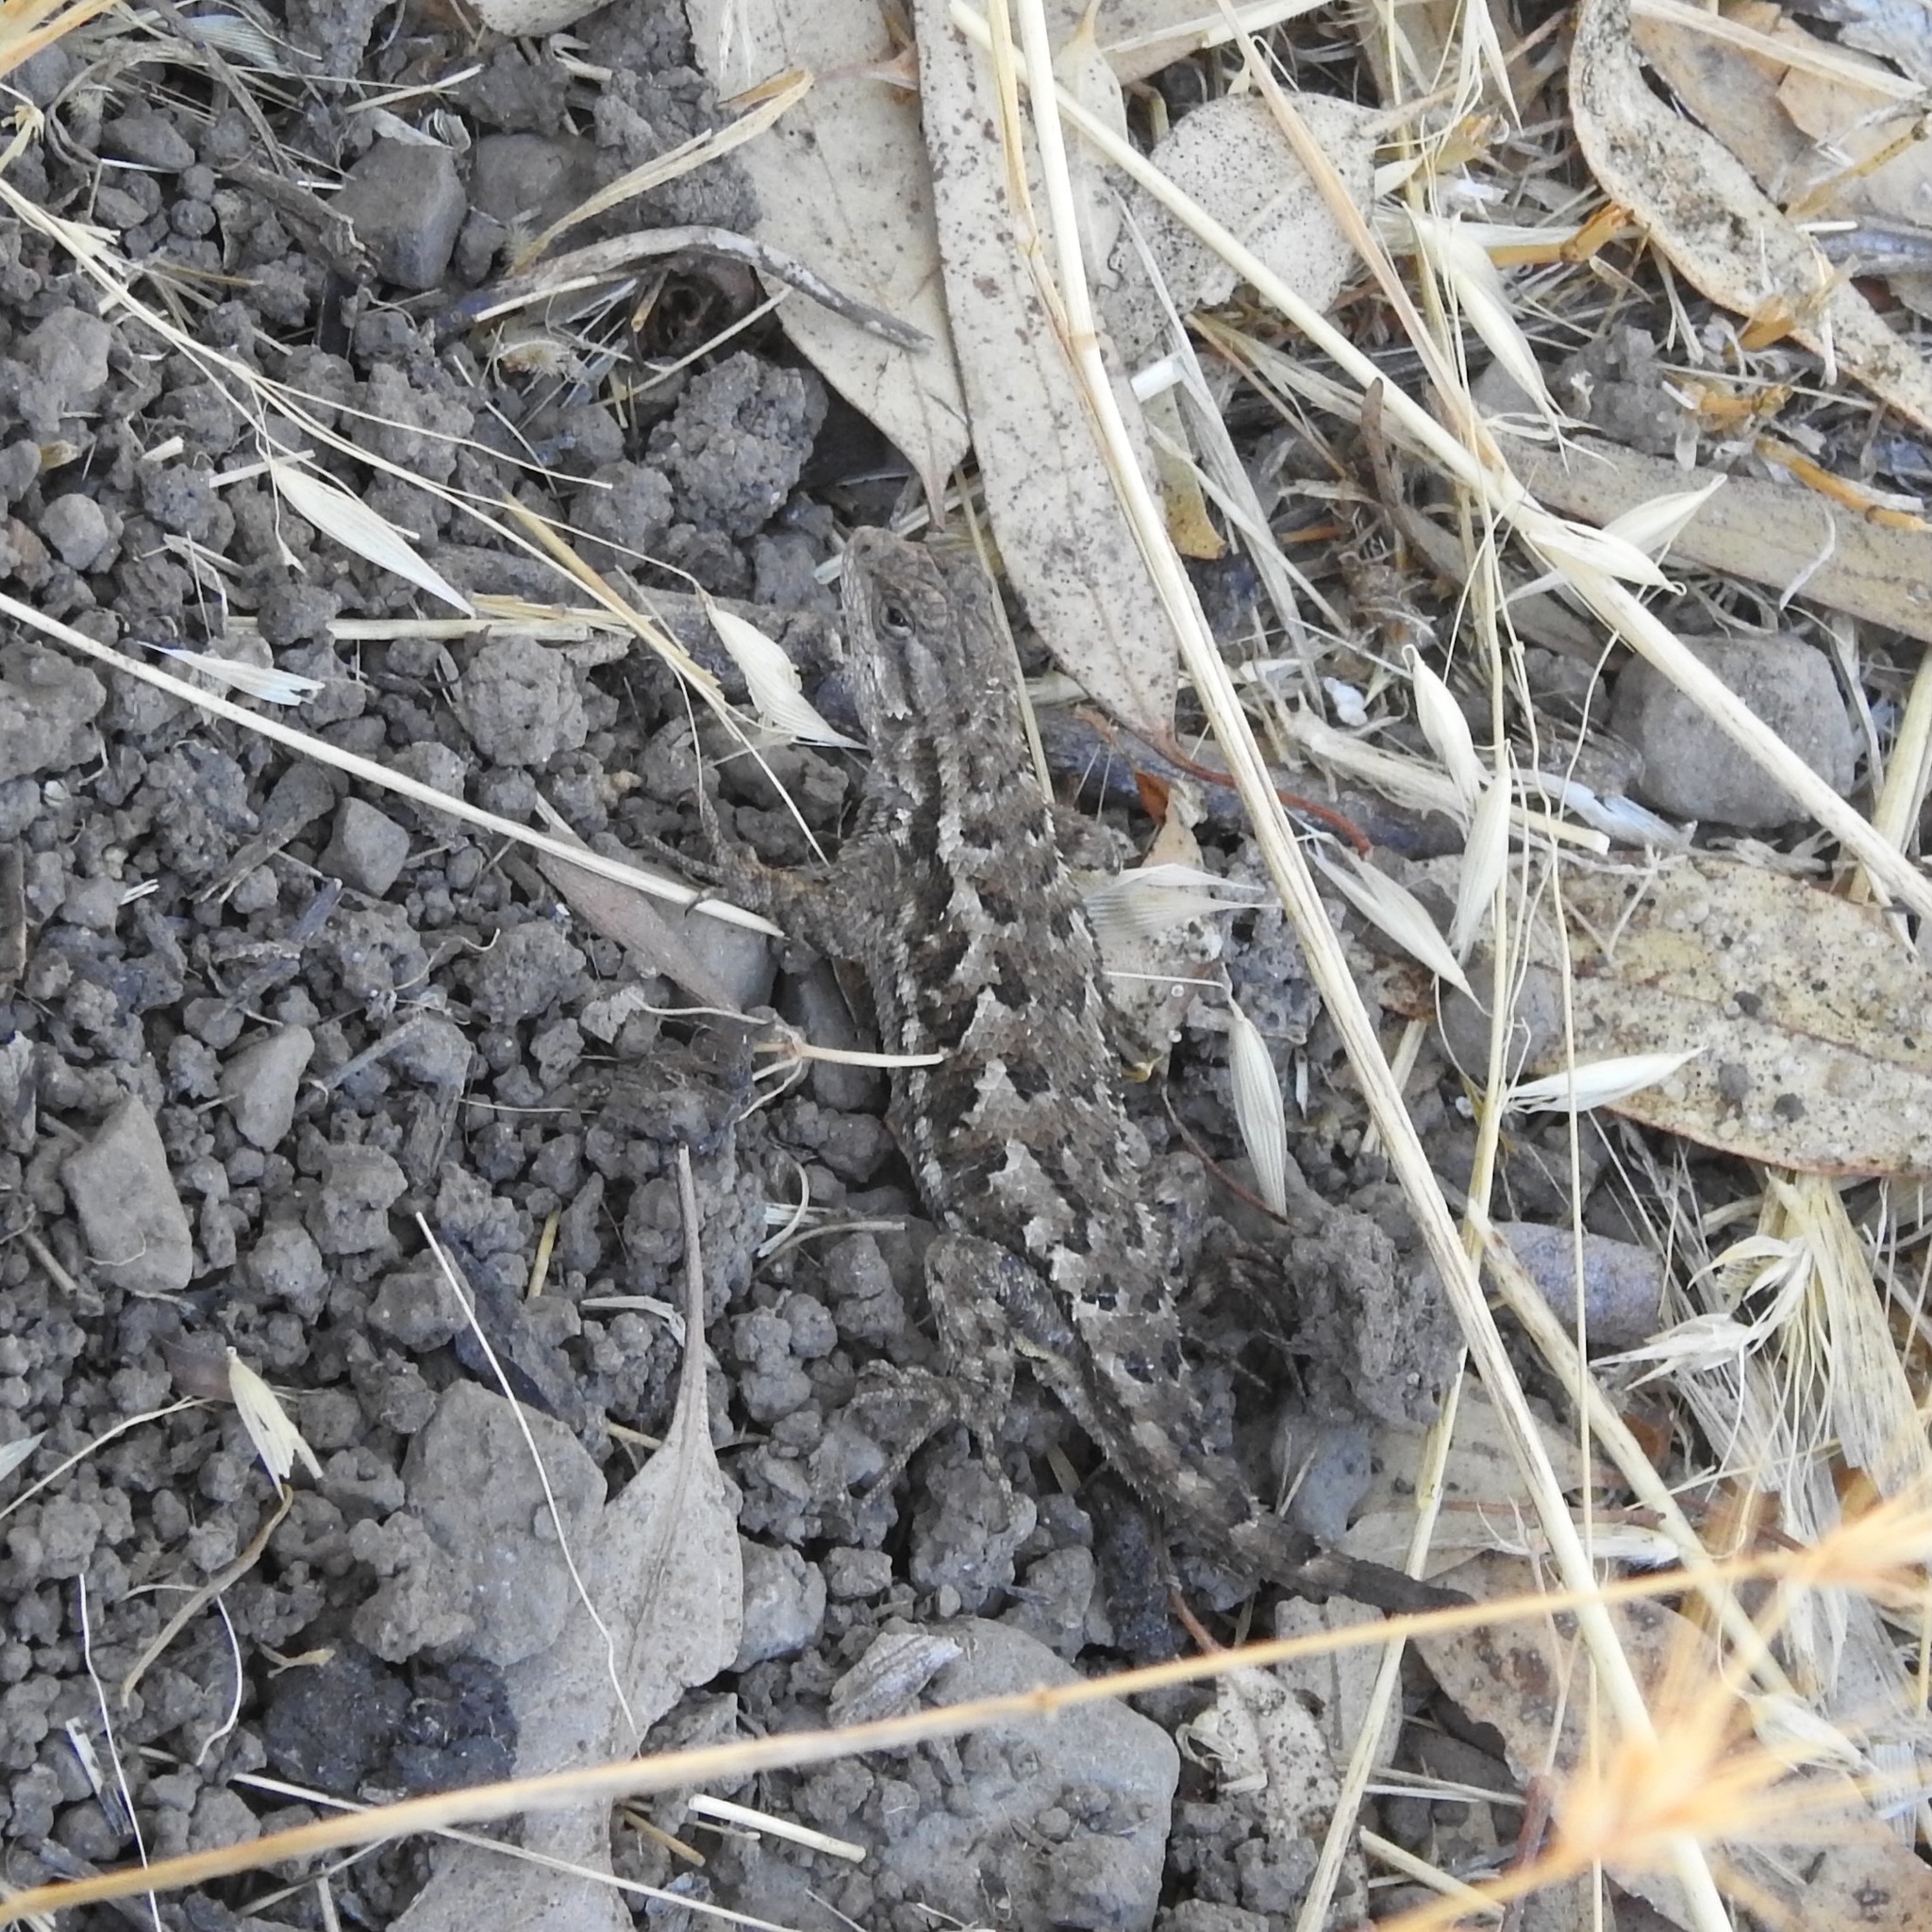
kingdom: Animalia
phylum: Chordata
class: Squamata
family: Phrynosomatidae
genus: Sceloporus
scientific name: Sceloporus occidentalis
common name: Western fence lizard
